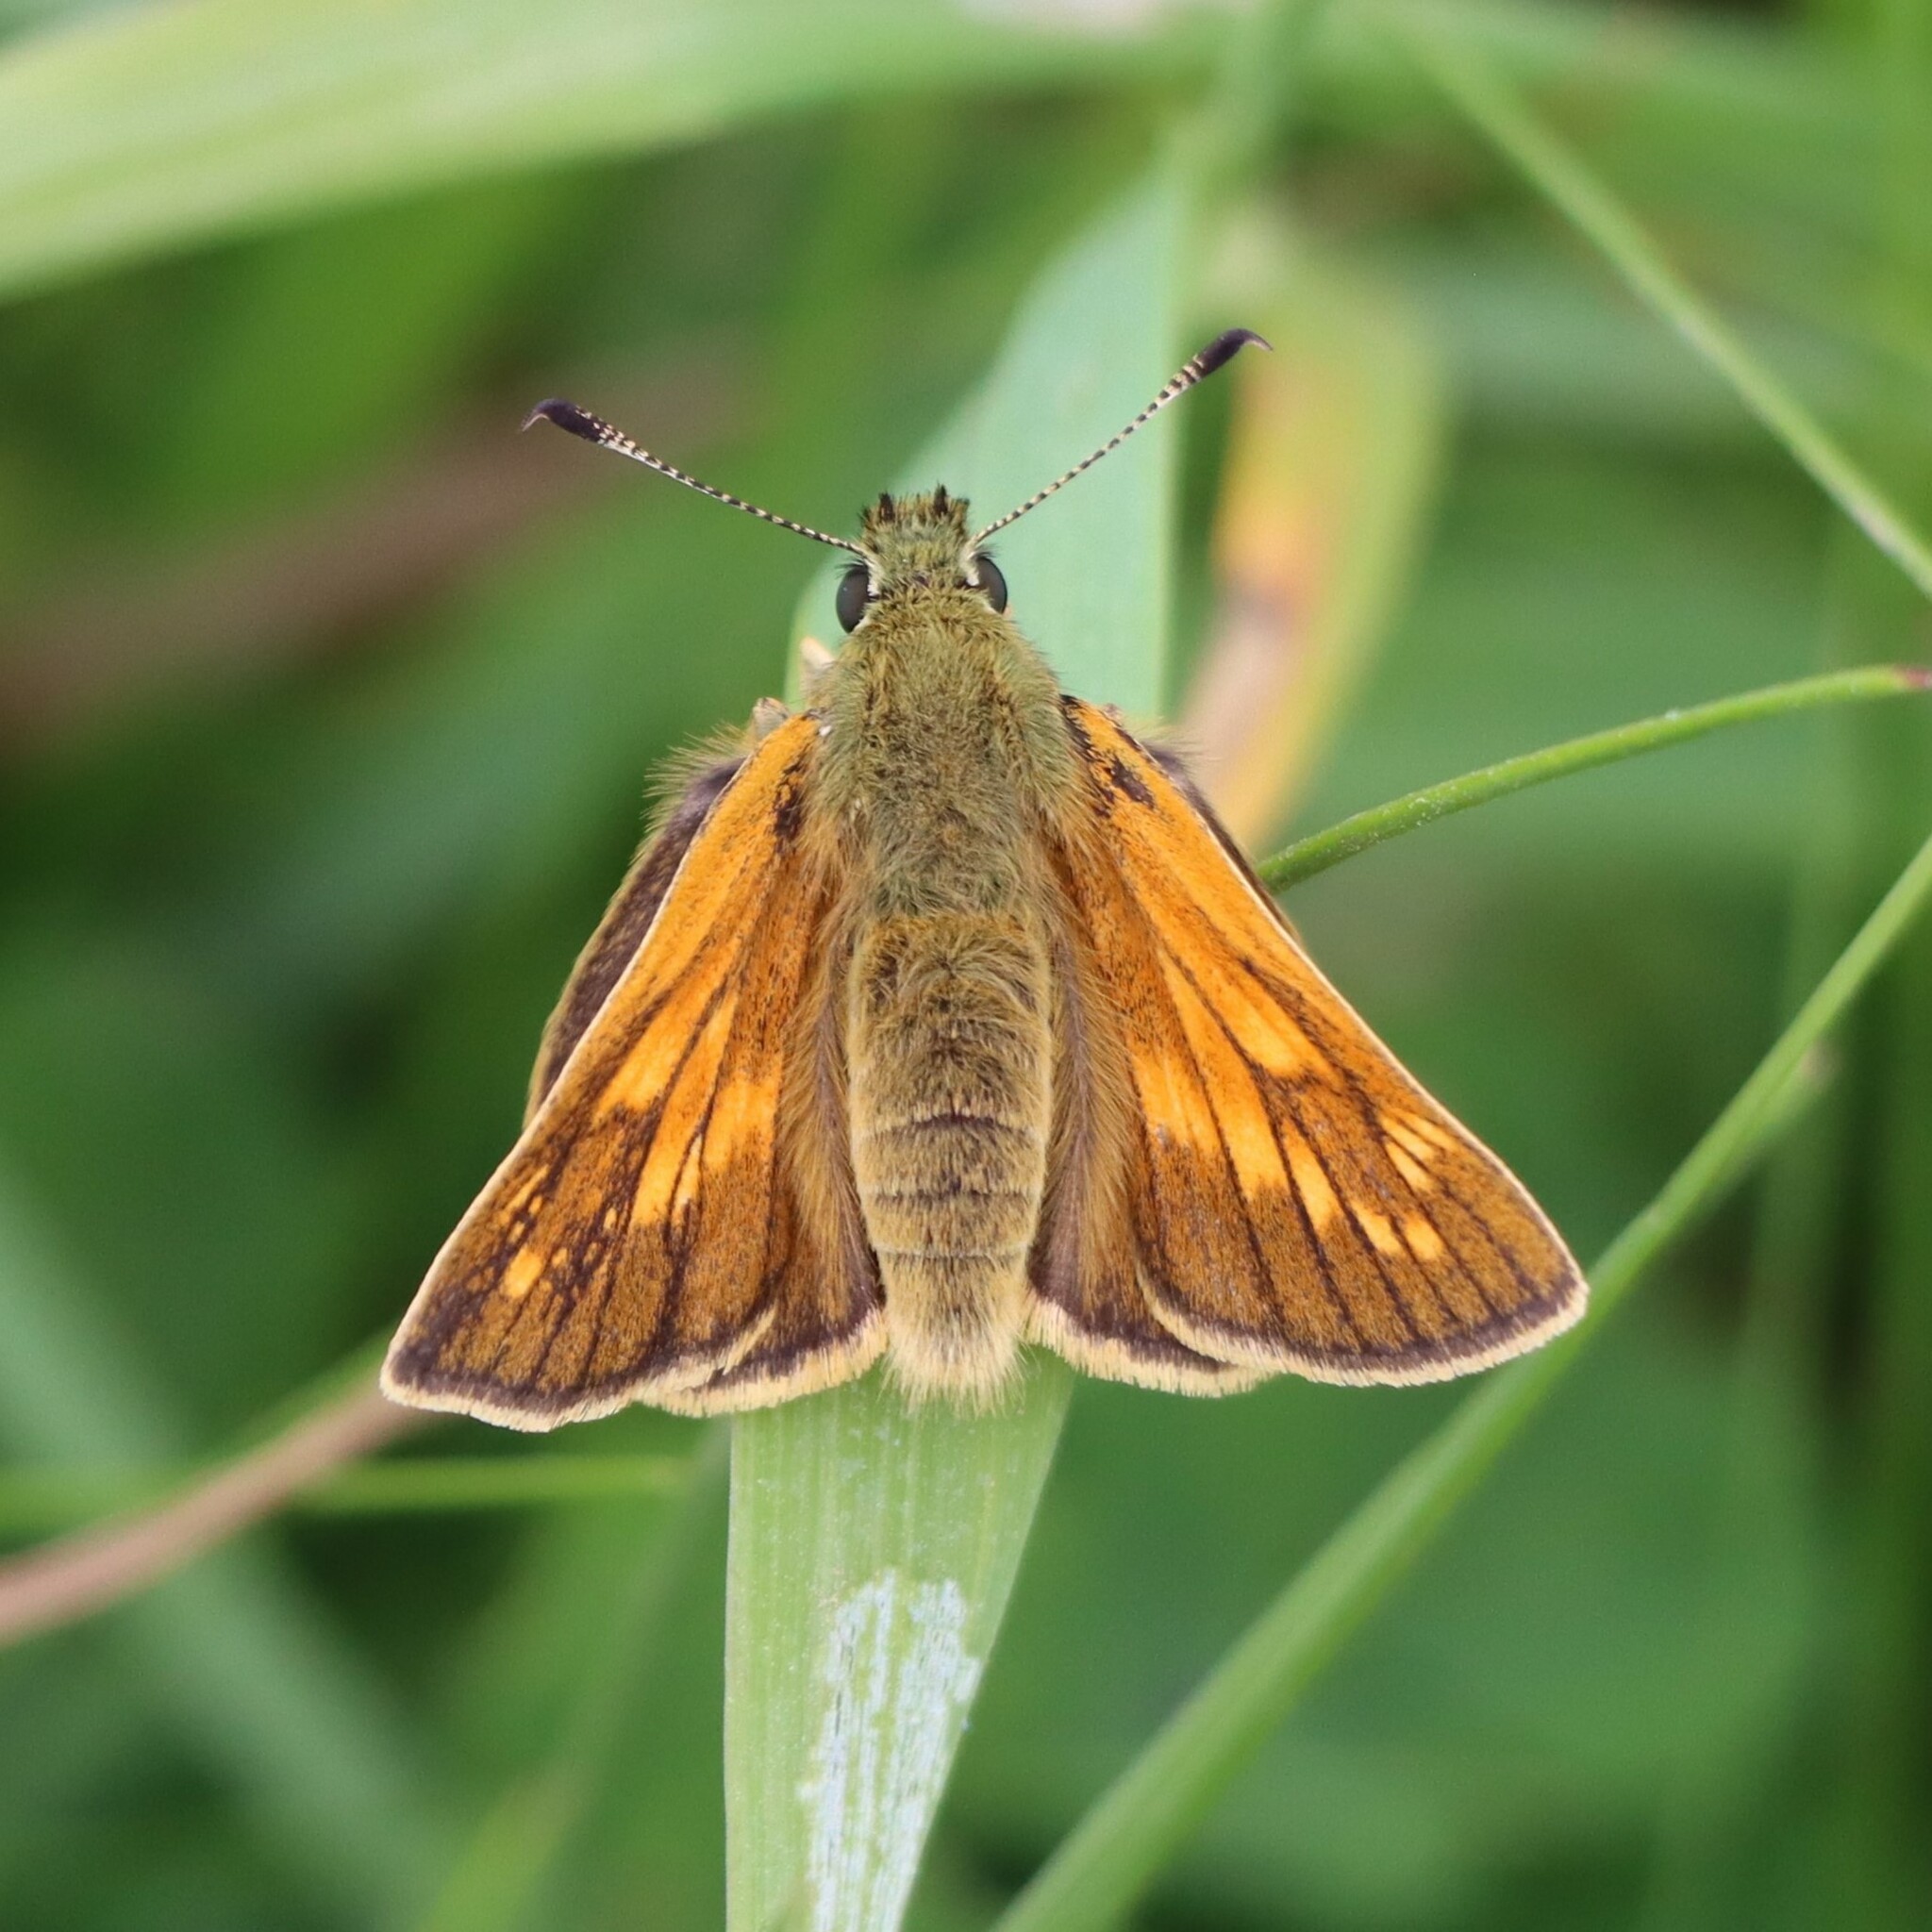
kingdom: Animalia
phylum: Arthropoda
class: Insecta
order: Lepidoptera
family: Hesperiidae
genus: Ochlodes
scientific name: Ochlodes venata
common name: Large skipper
